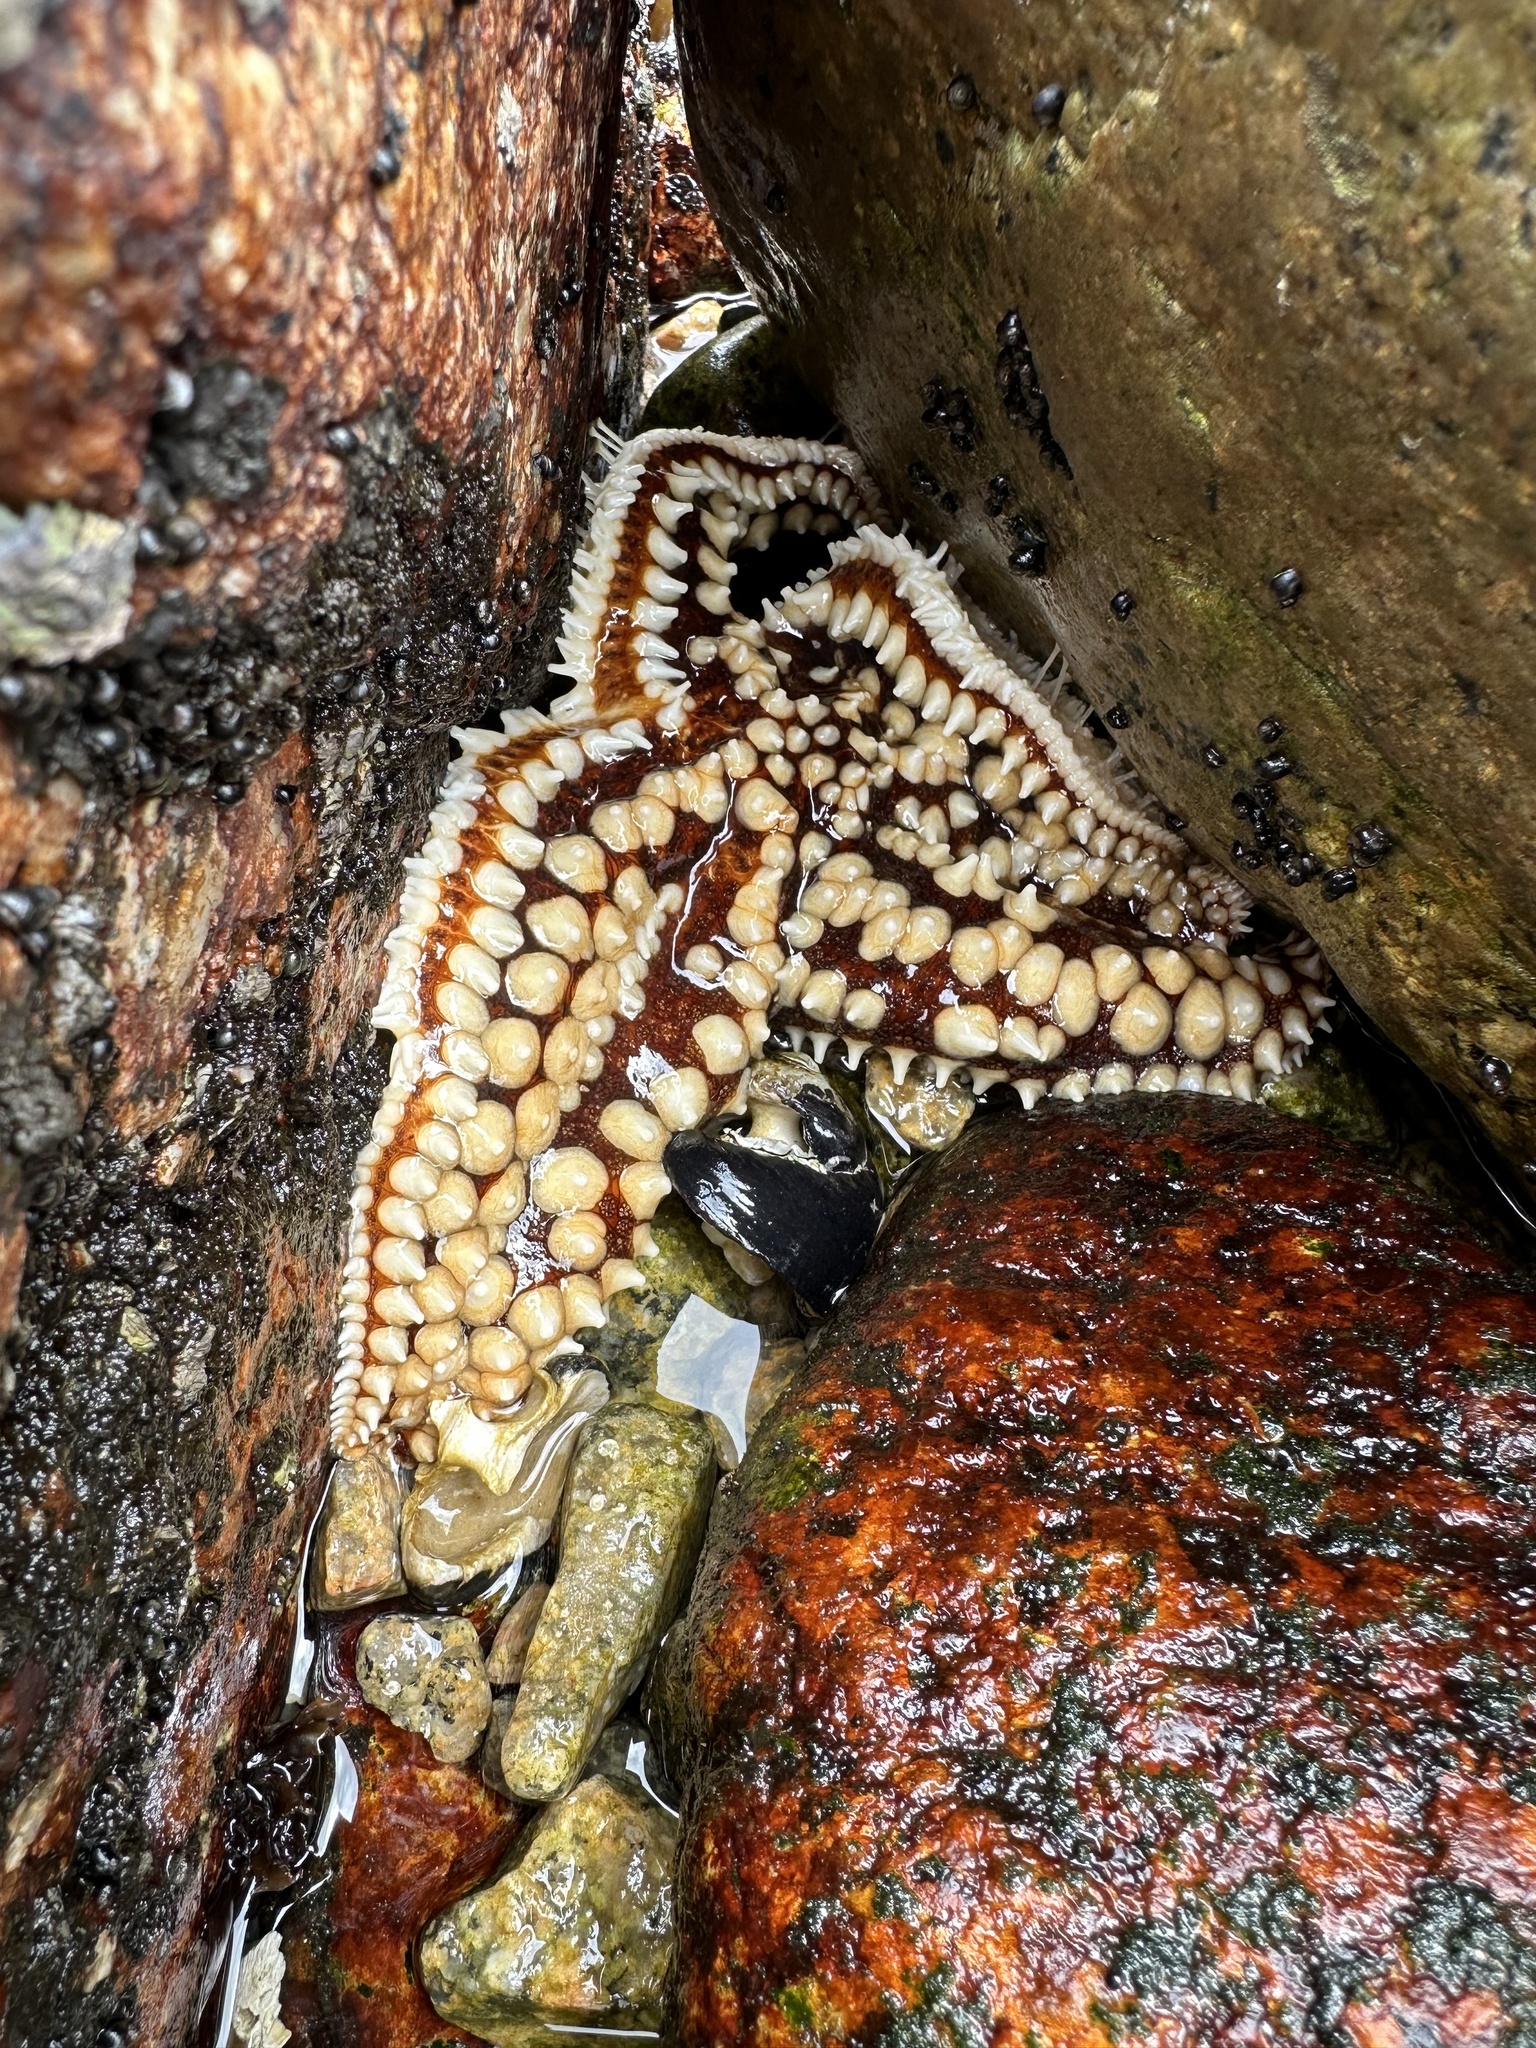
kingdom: Animalia
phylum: Echinodermata
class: Asteroidea
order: Forcipulatida
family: Asteriidae
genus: Meyenaster
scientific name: Meyenaster gelatinosus
